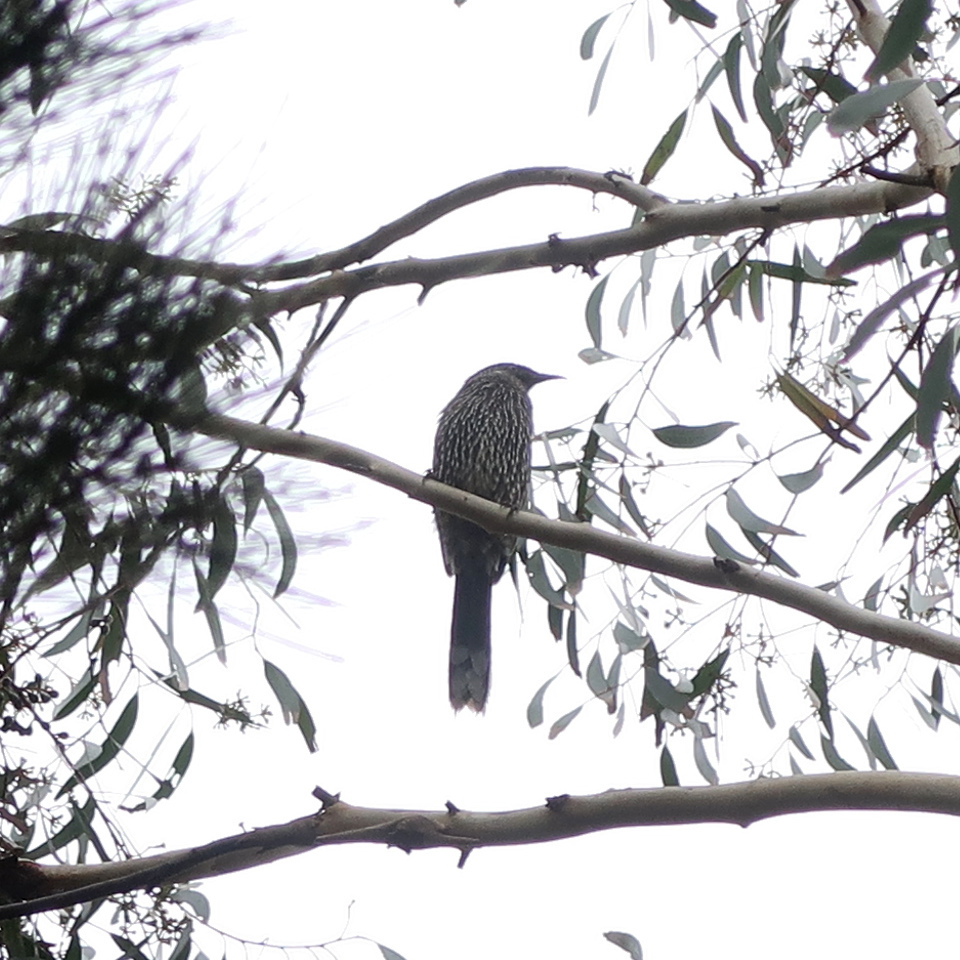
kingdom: Animalia
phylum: Chordata
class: Aves
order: Passeriformes
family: Meliphagidae
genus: Anthochaera
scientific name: Anthochaera chrysoptera
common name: Little wattlebird
